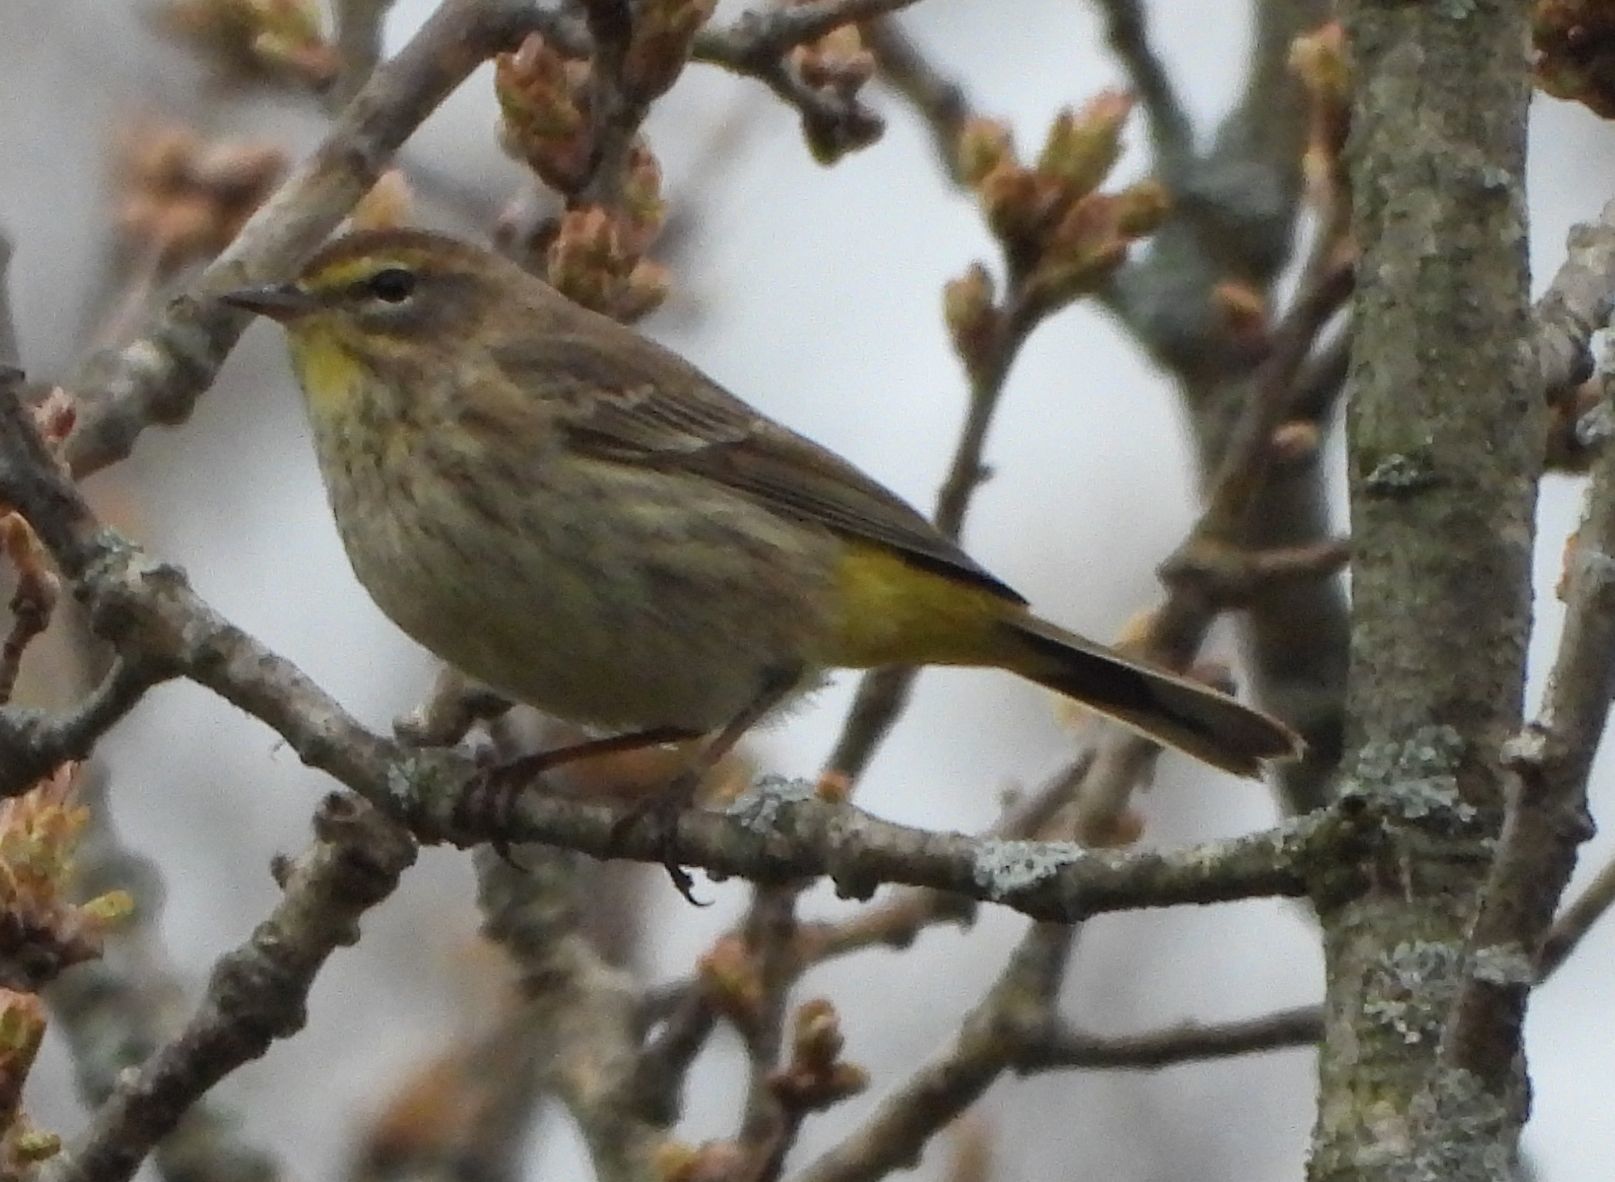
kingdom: Animalia
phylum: Chordata
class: Aves
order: Passeriformes
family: Parulidae
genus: Setophaga
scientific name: Setophaga palmarum
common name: Palm warbler
